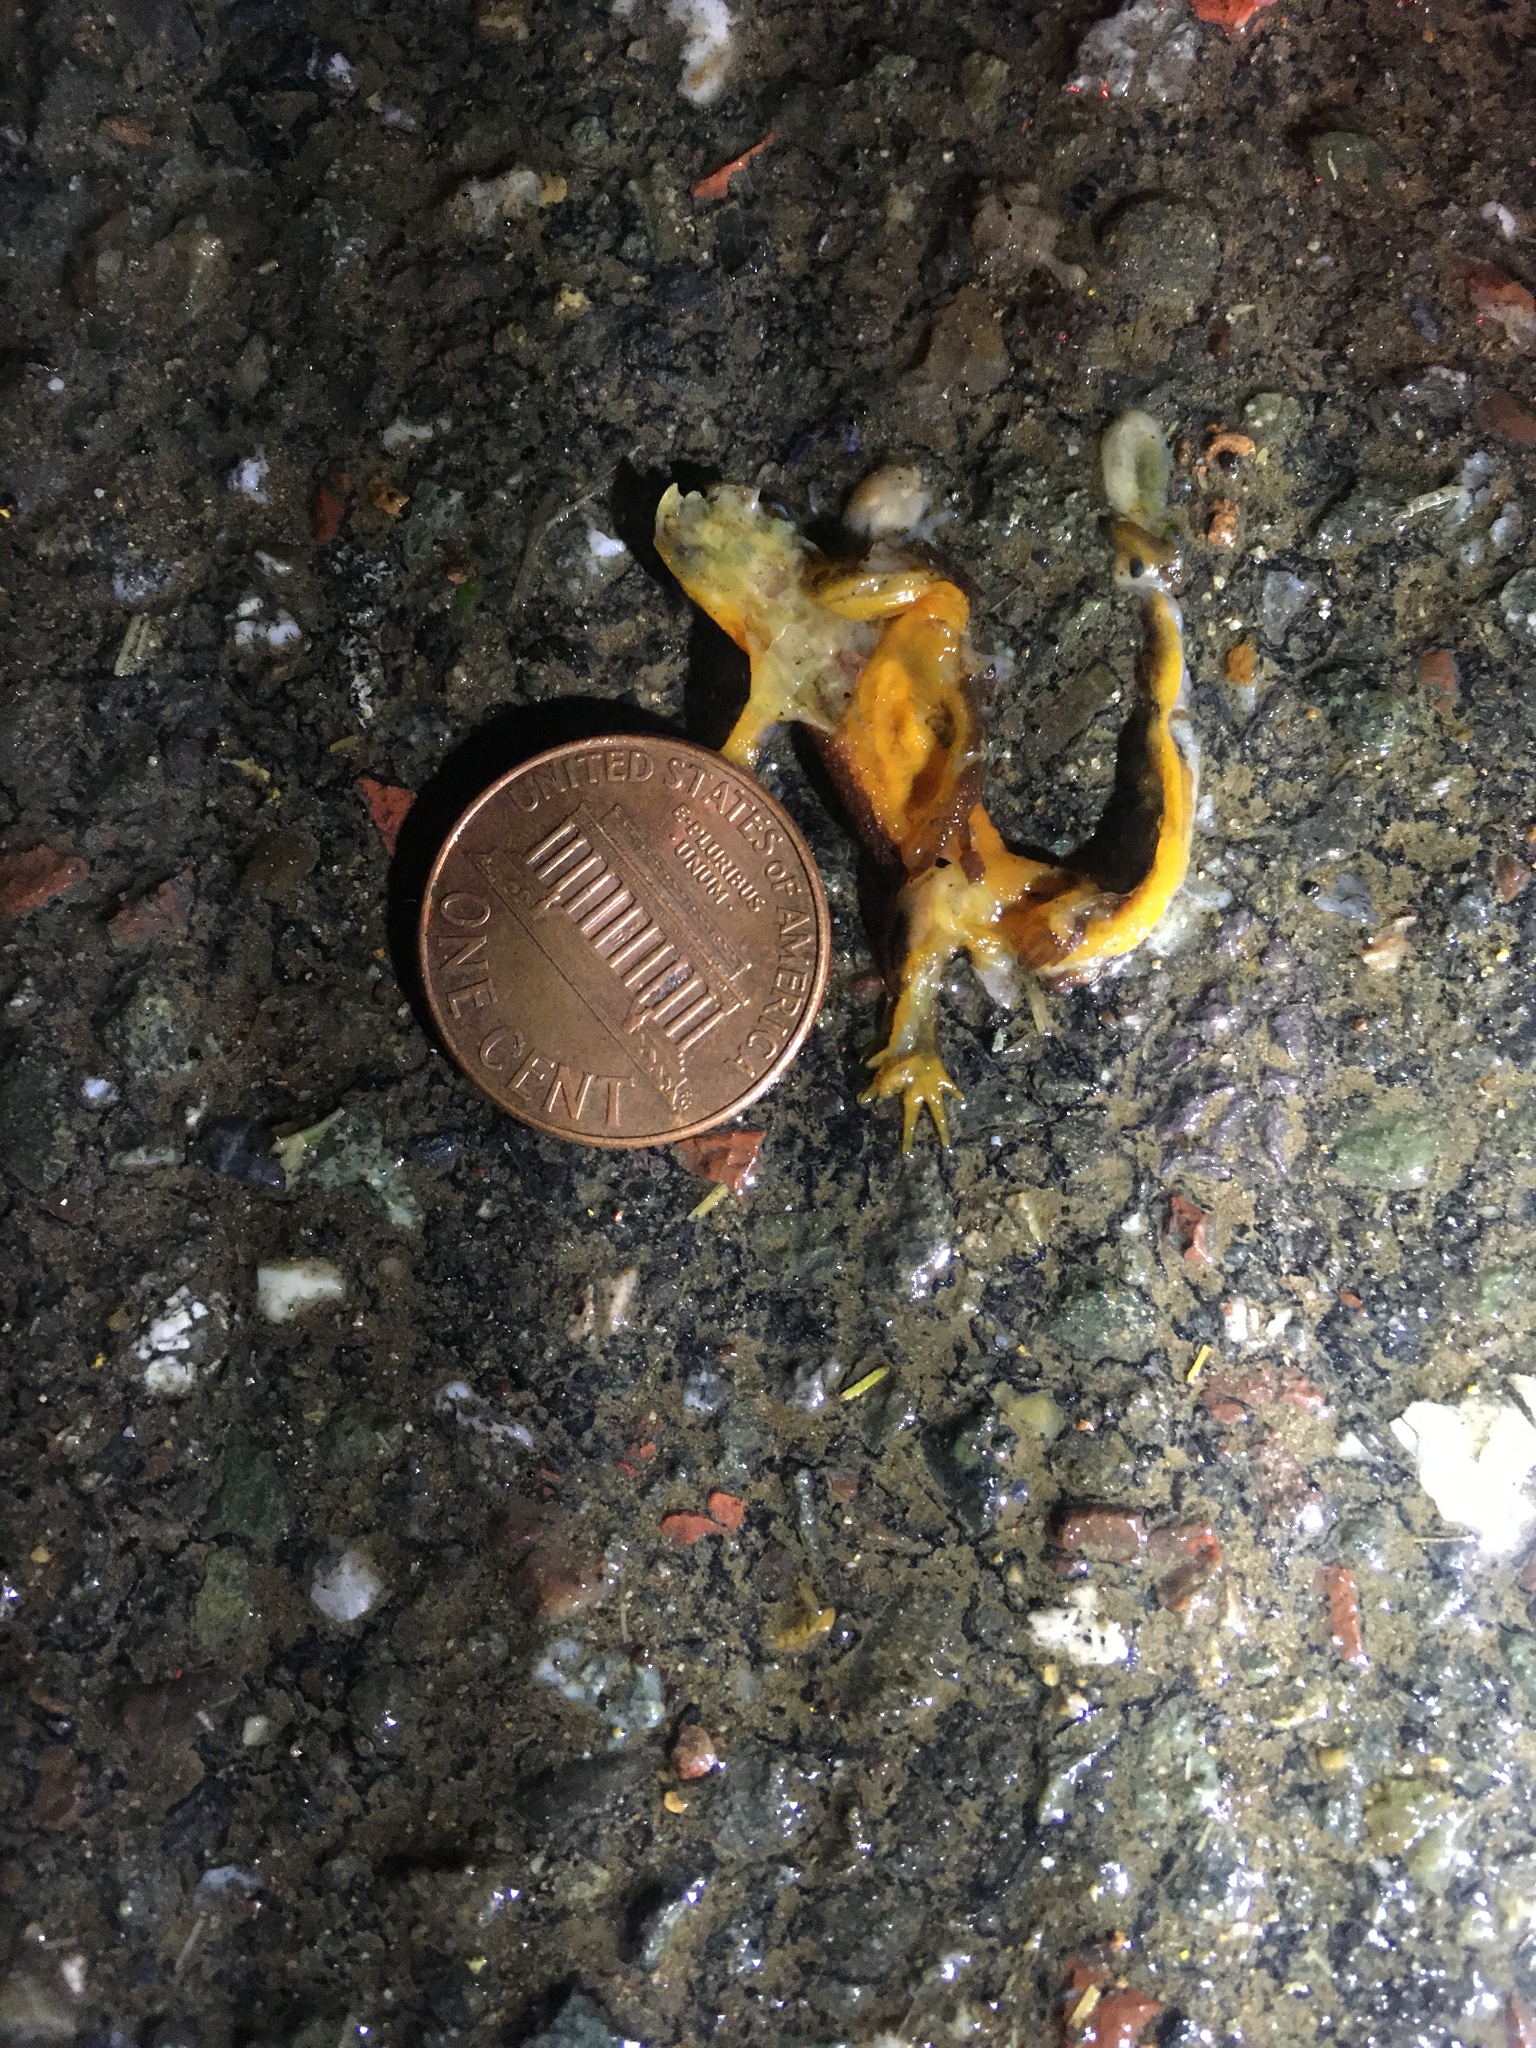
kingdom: Animalia
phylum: Chordata
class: Amphibia
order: Caudata
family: Salamandridae
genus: Taricha
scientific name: Taricha
